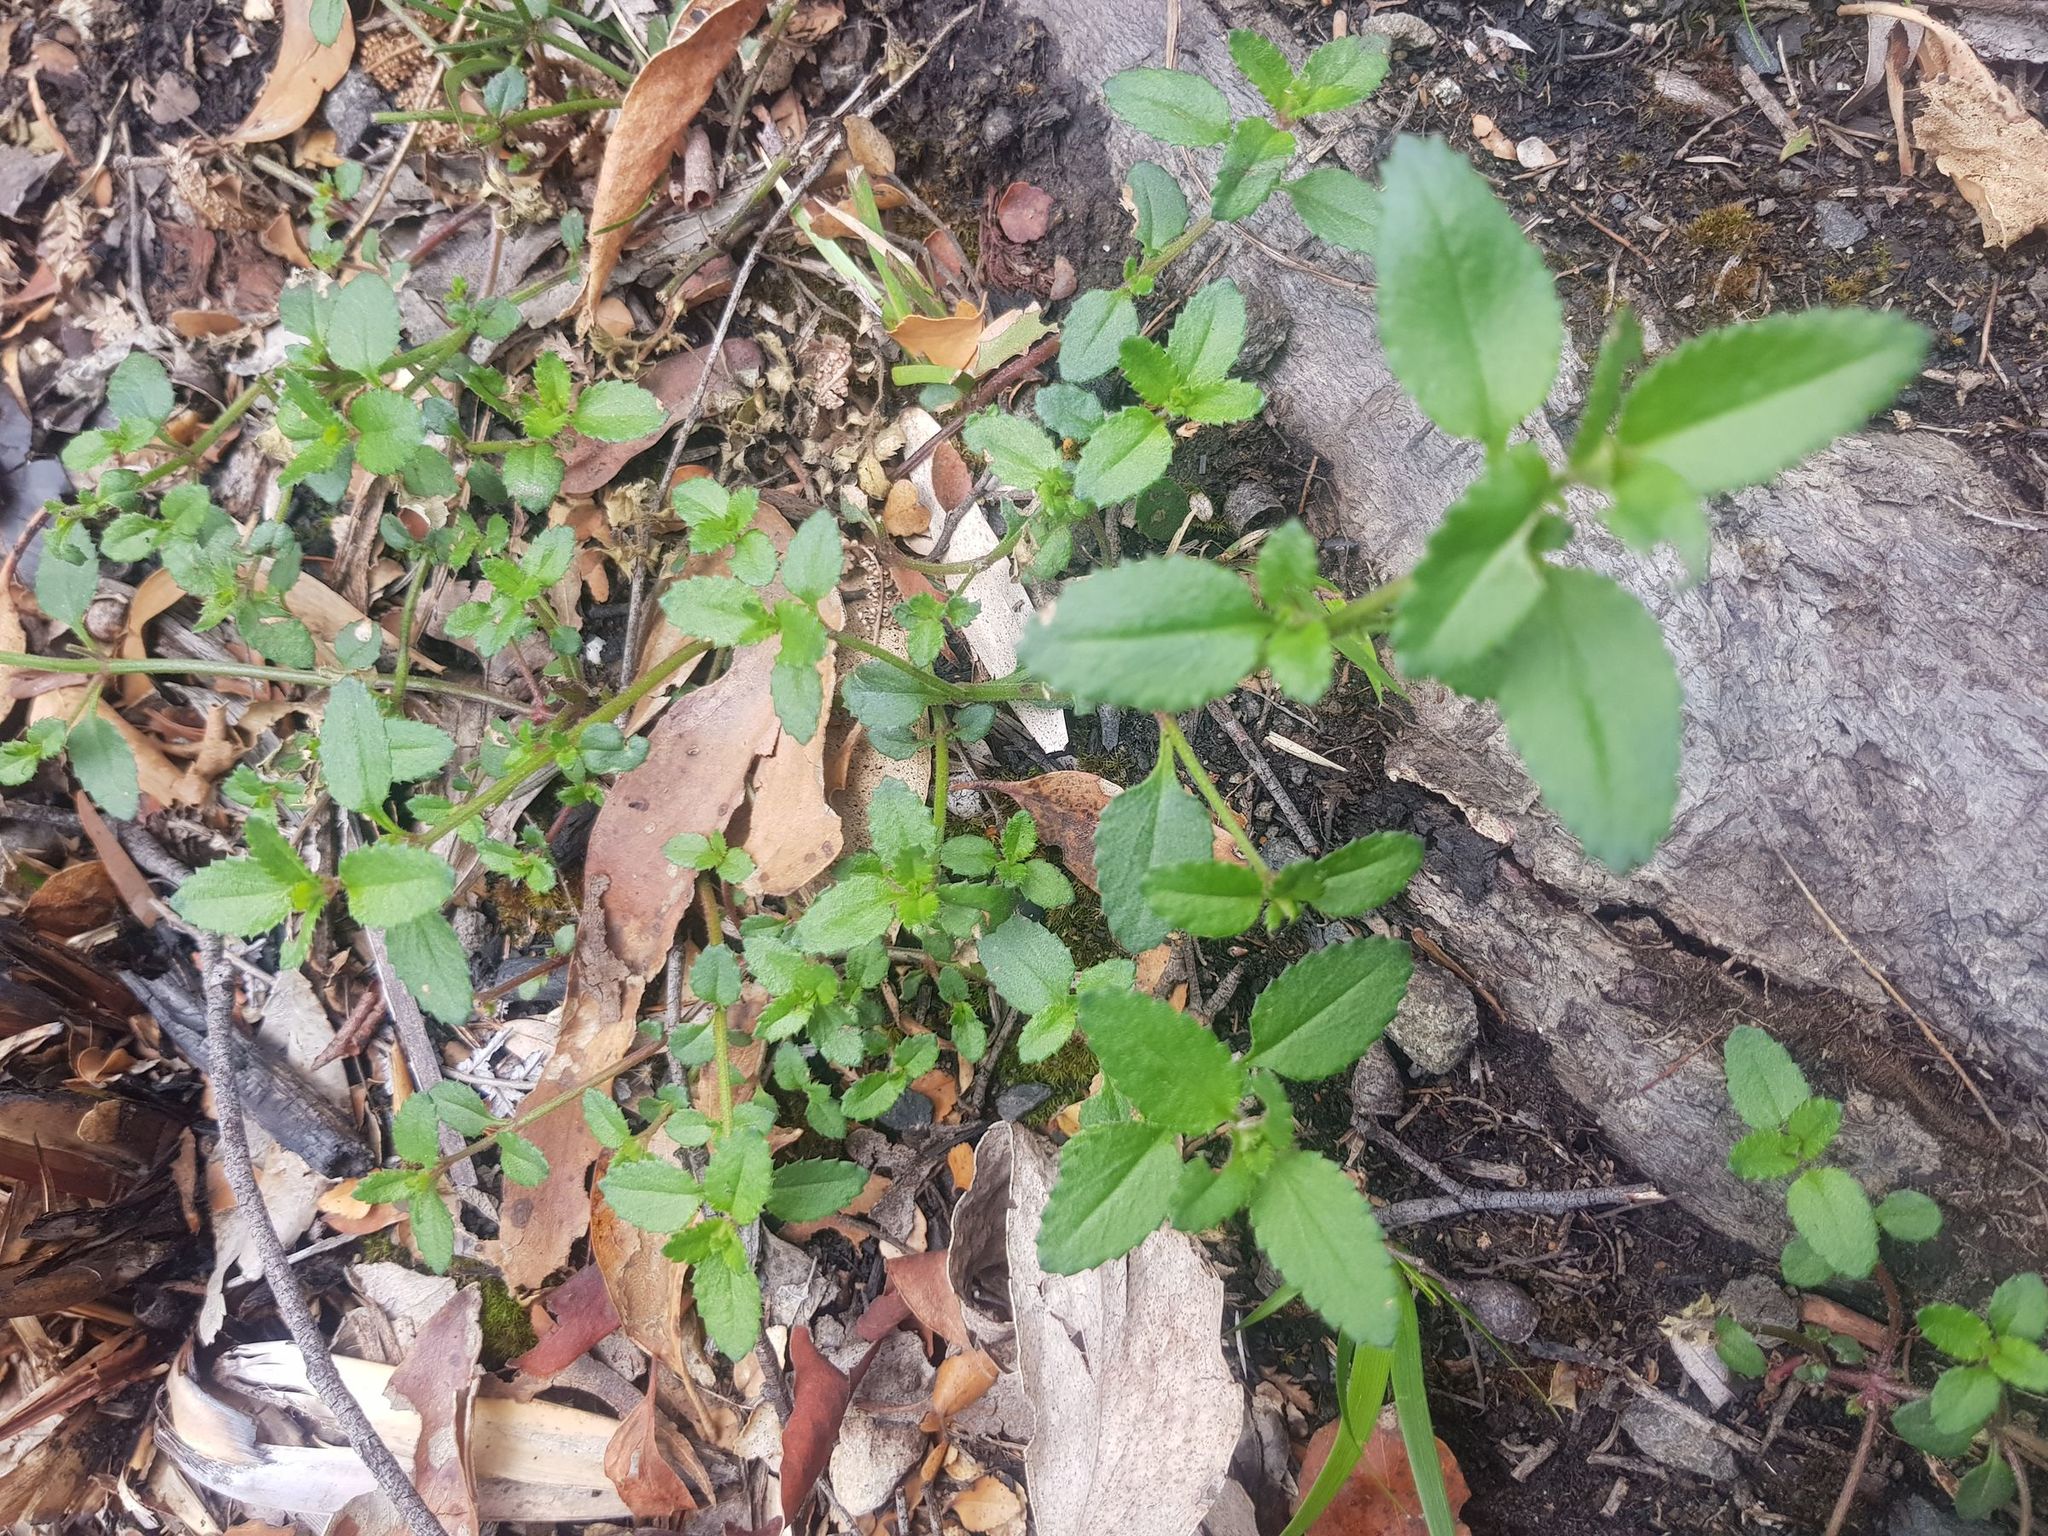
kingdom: Plantae
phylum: Tracheophyta
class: Magnoliopsida
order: Saxifragales
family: Haloragaceae
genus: Gonocarpus
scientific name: Gonocarpus teucrioides
